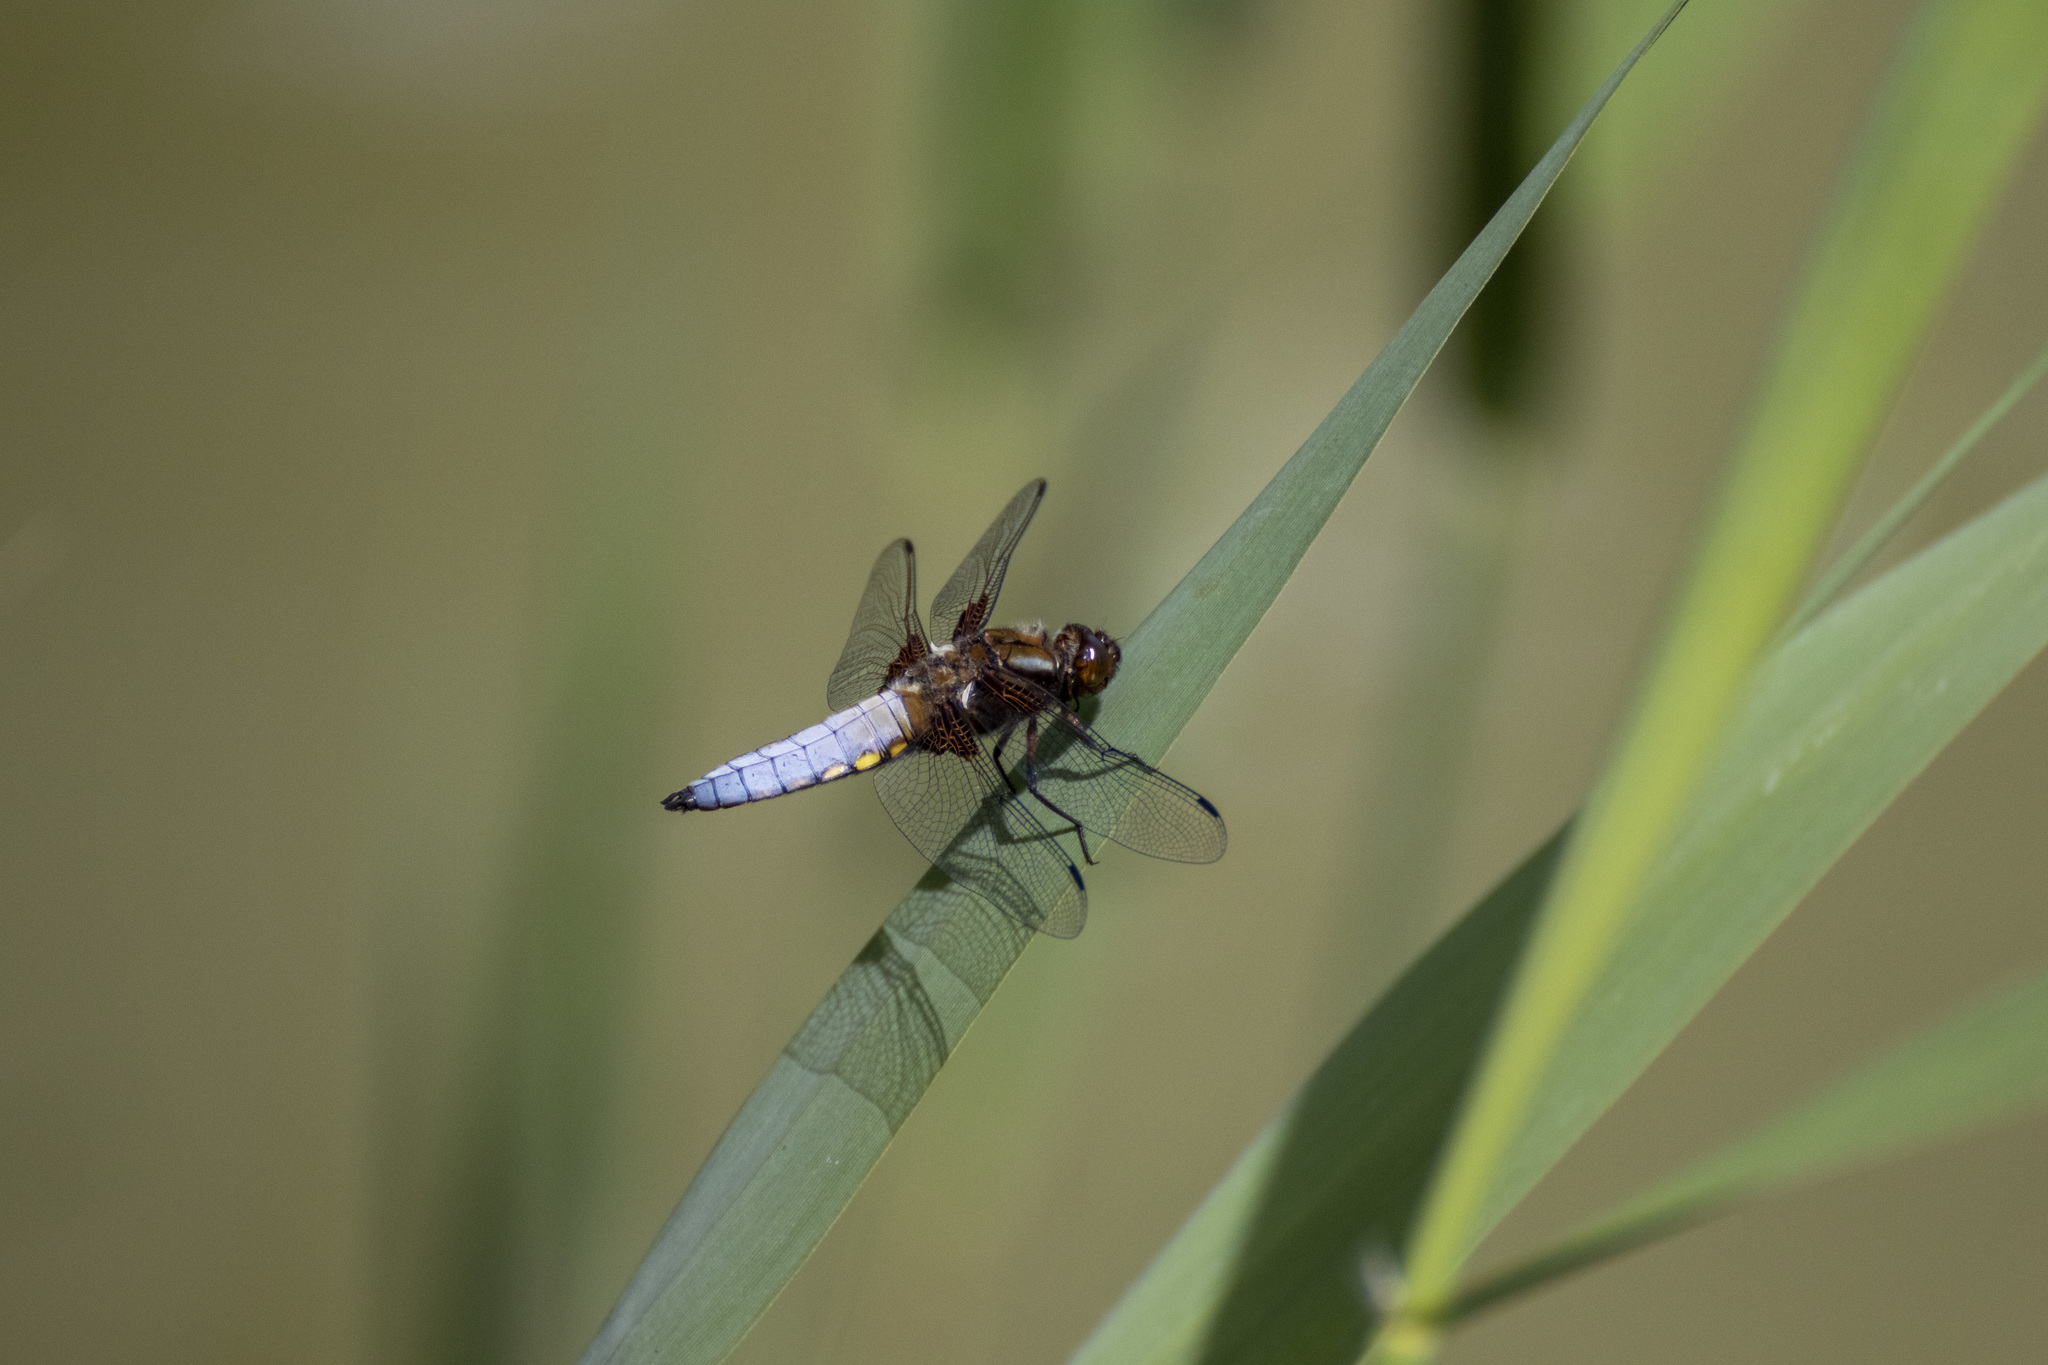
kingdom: Animalia
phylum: Arthropoda
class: Insecta
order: Odonata
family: Libellulidae
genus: Libellula
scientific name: Libellula depressa
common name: Broad-bodied chaser
